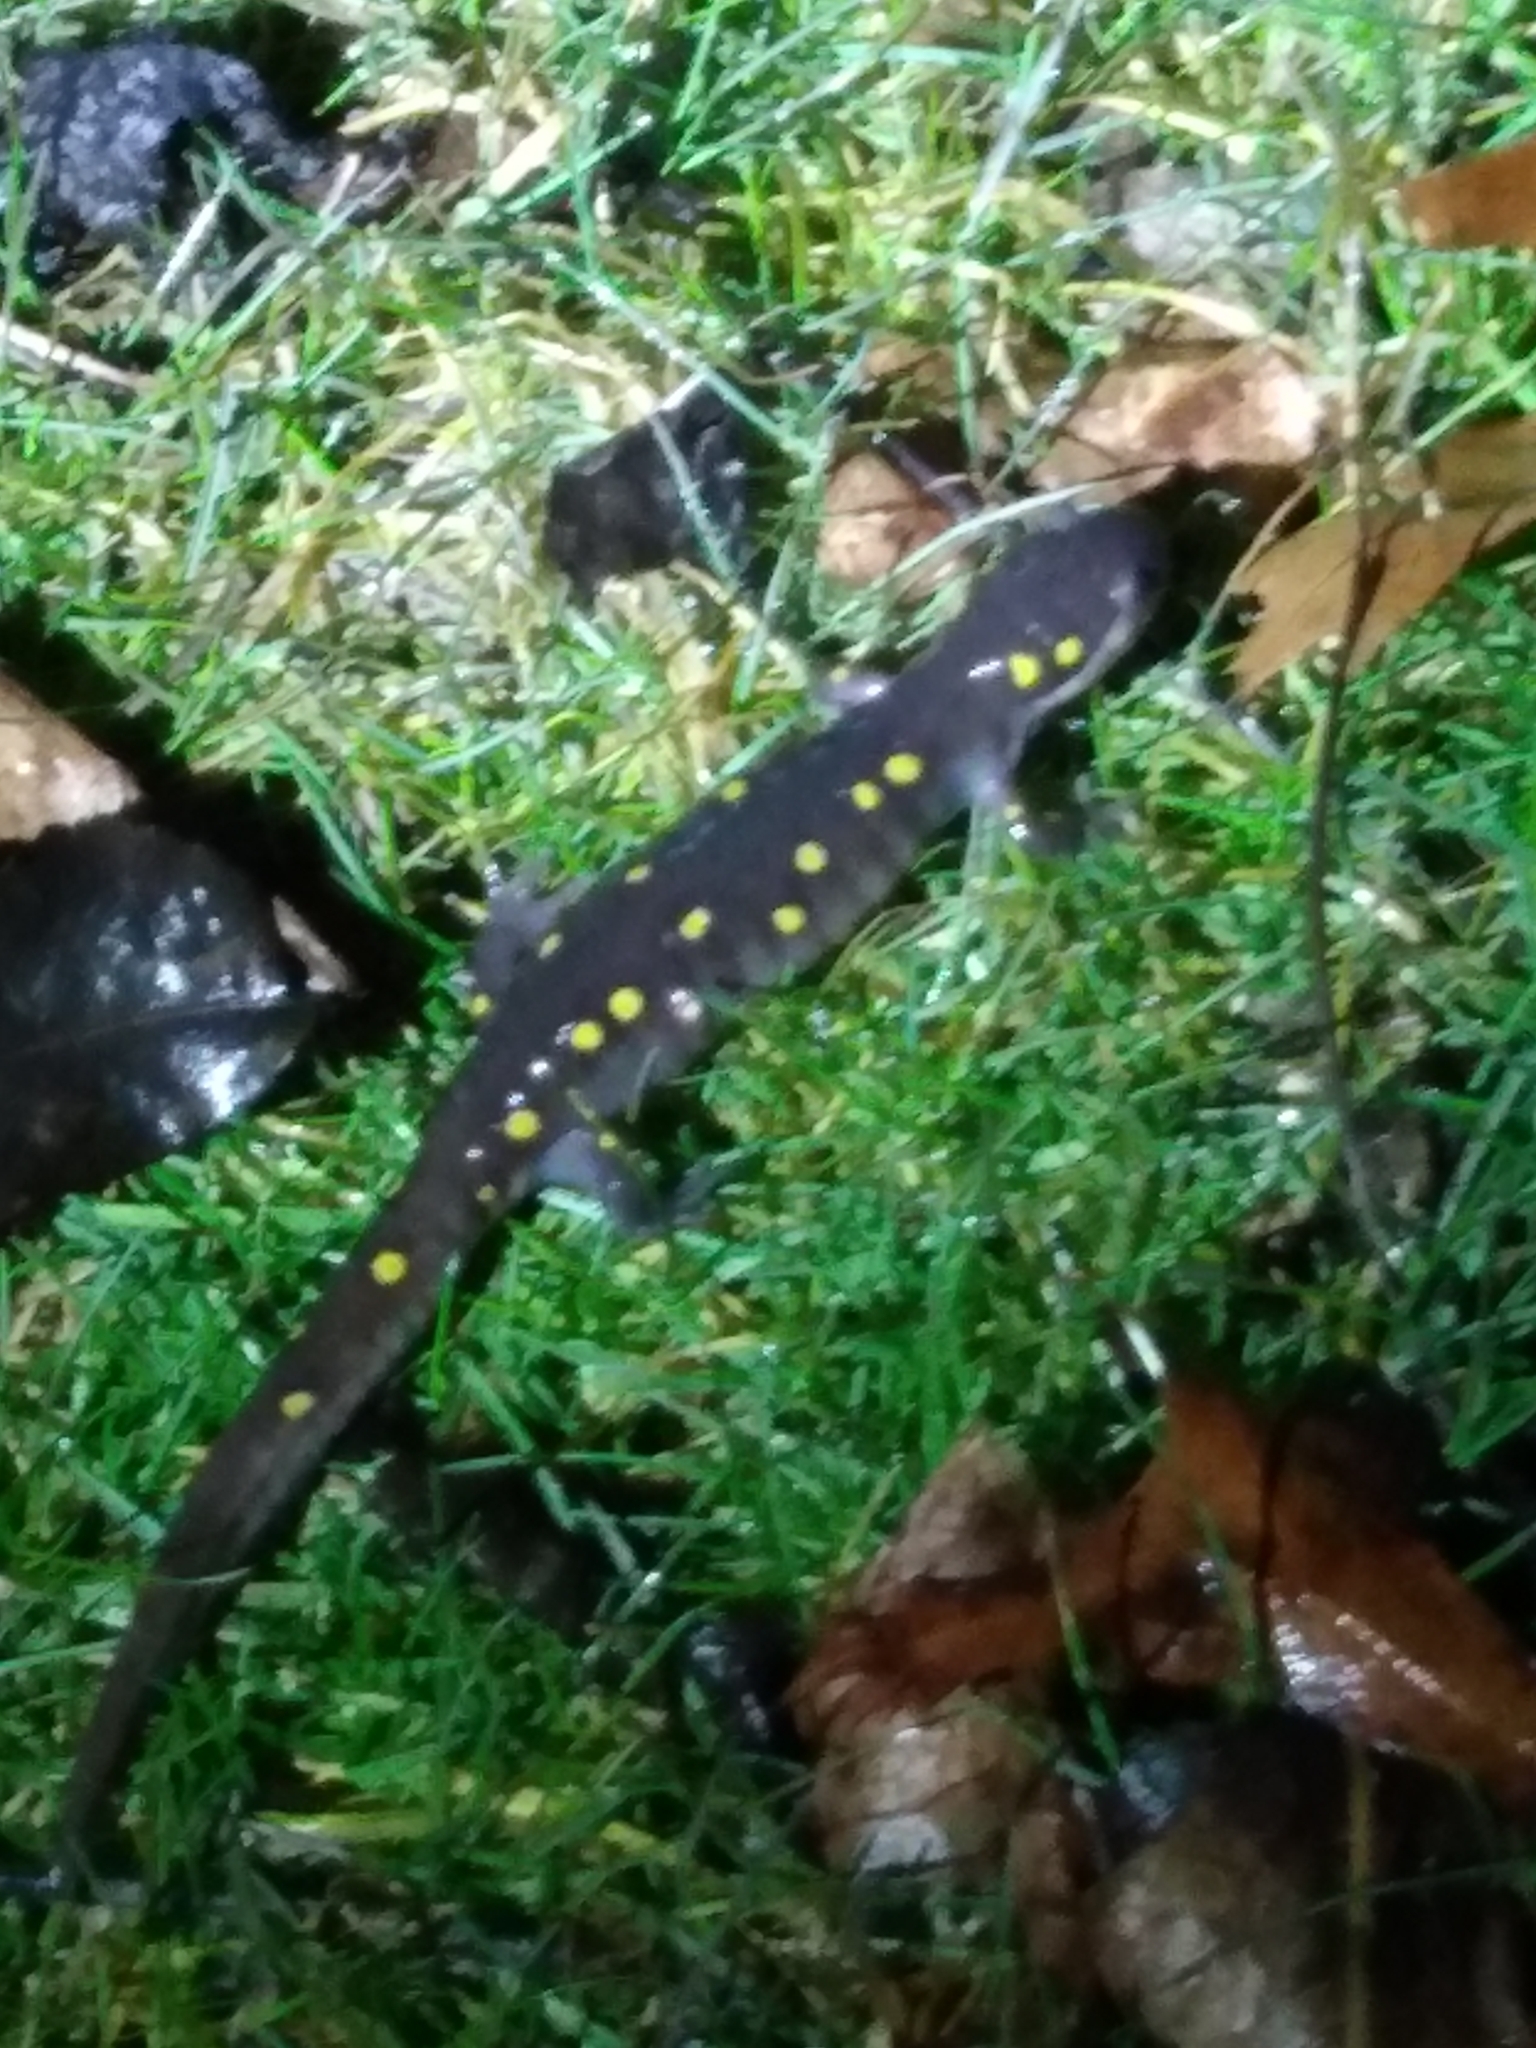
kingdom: Animalia
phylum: Chordata
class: Amphibia
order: Caudata
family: Ambystomatidae
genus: Ambystoma
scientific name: Ambystoma maculatum
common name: Spotted salamander
